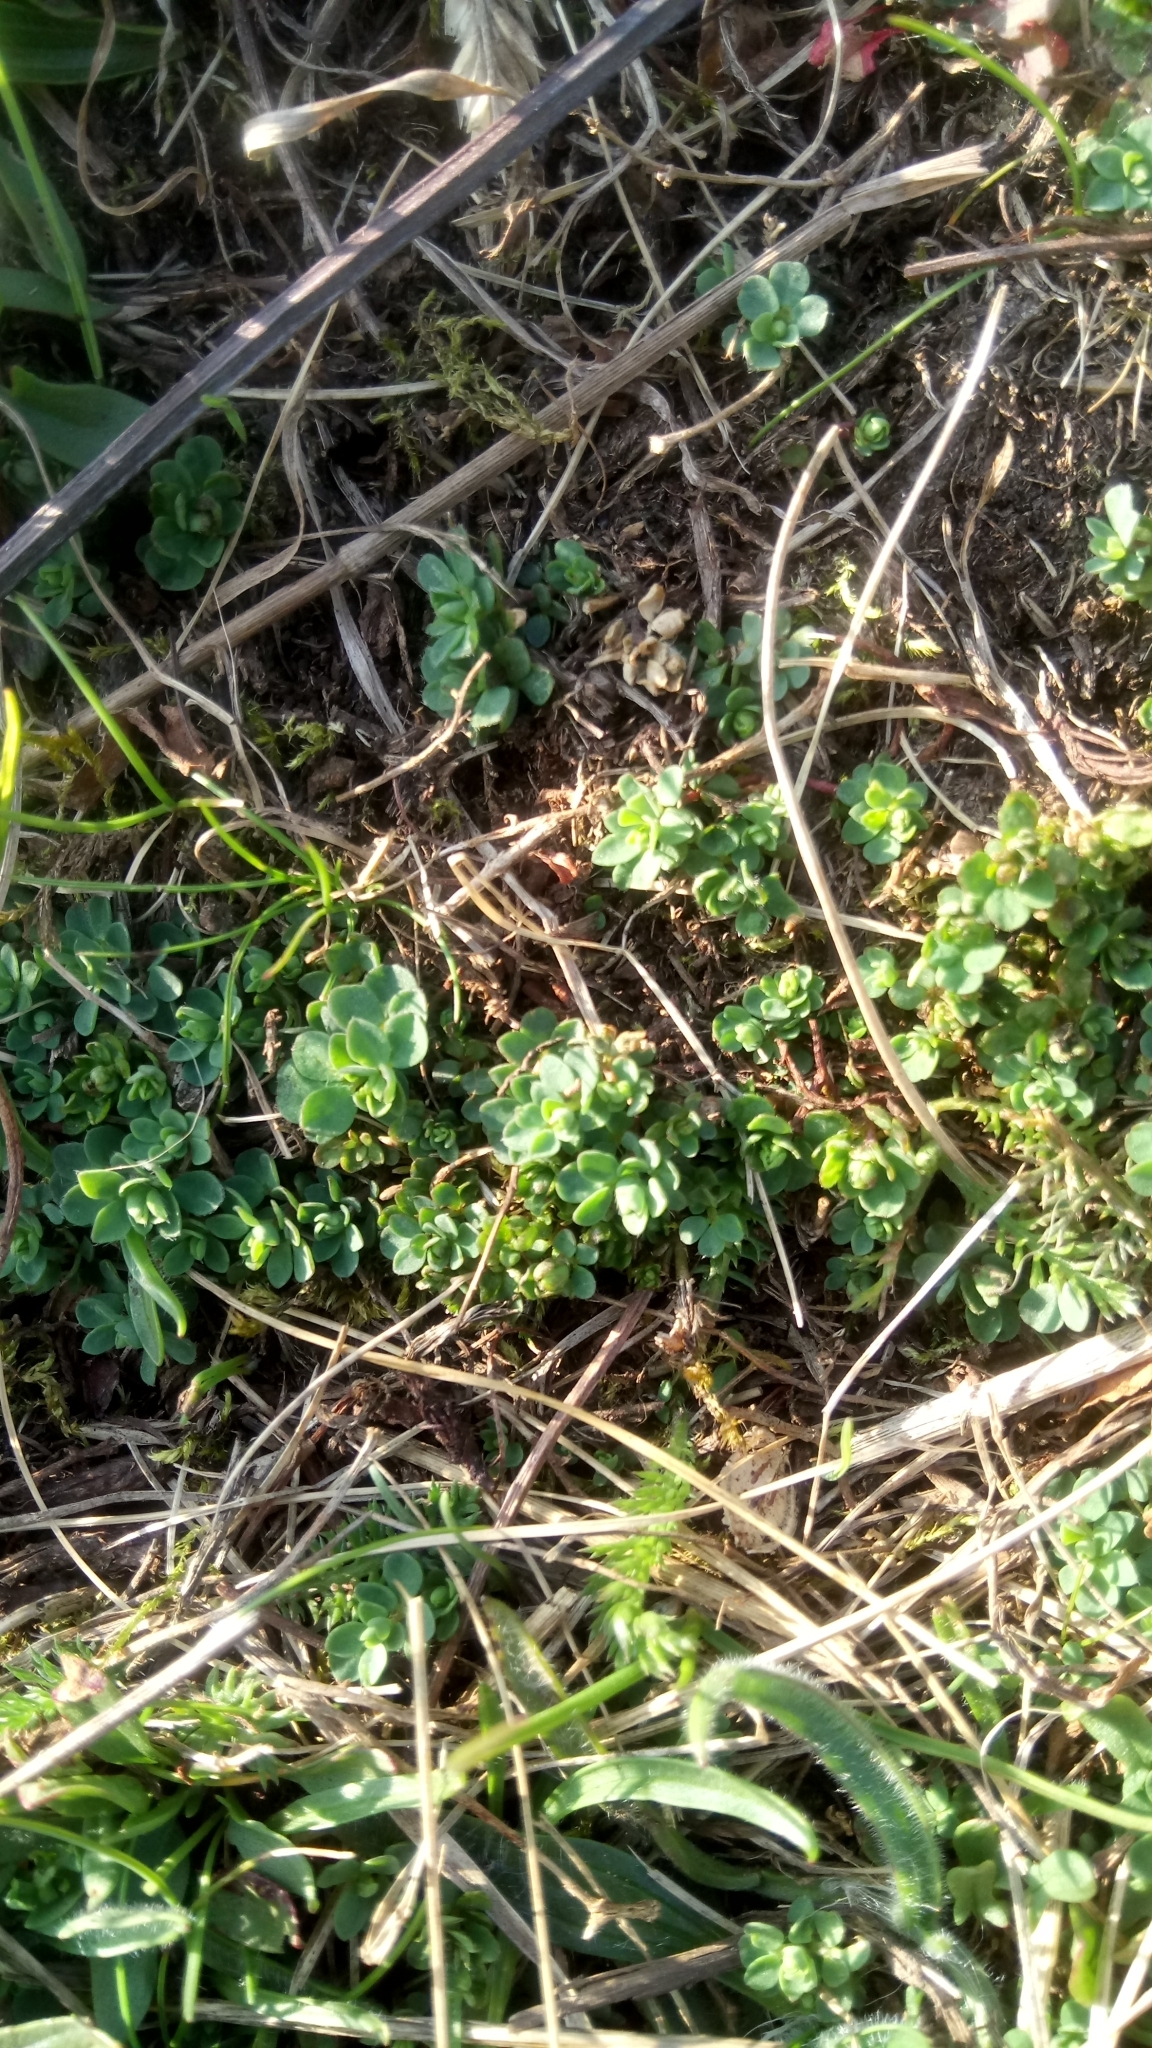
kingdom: Plantae
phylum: Tracheophyta
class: Magnoliopsida
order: Fabales
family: Fabaceae
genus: Lotus
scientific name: Lotus corniculatus
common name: Common bird's-foot-trefoil
